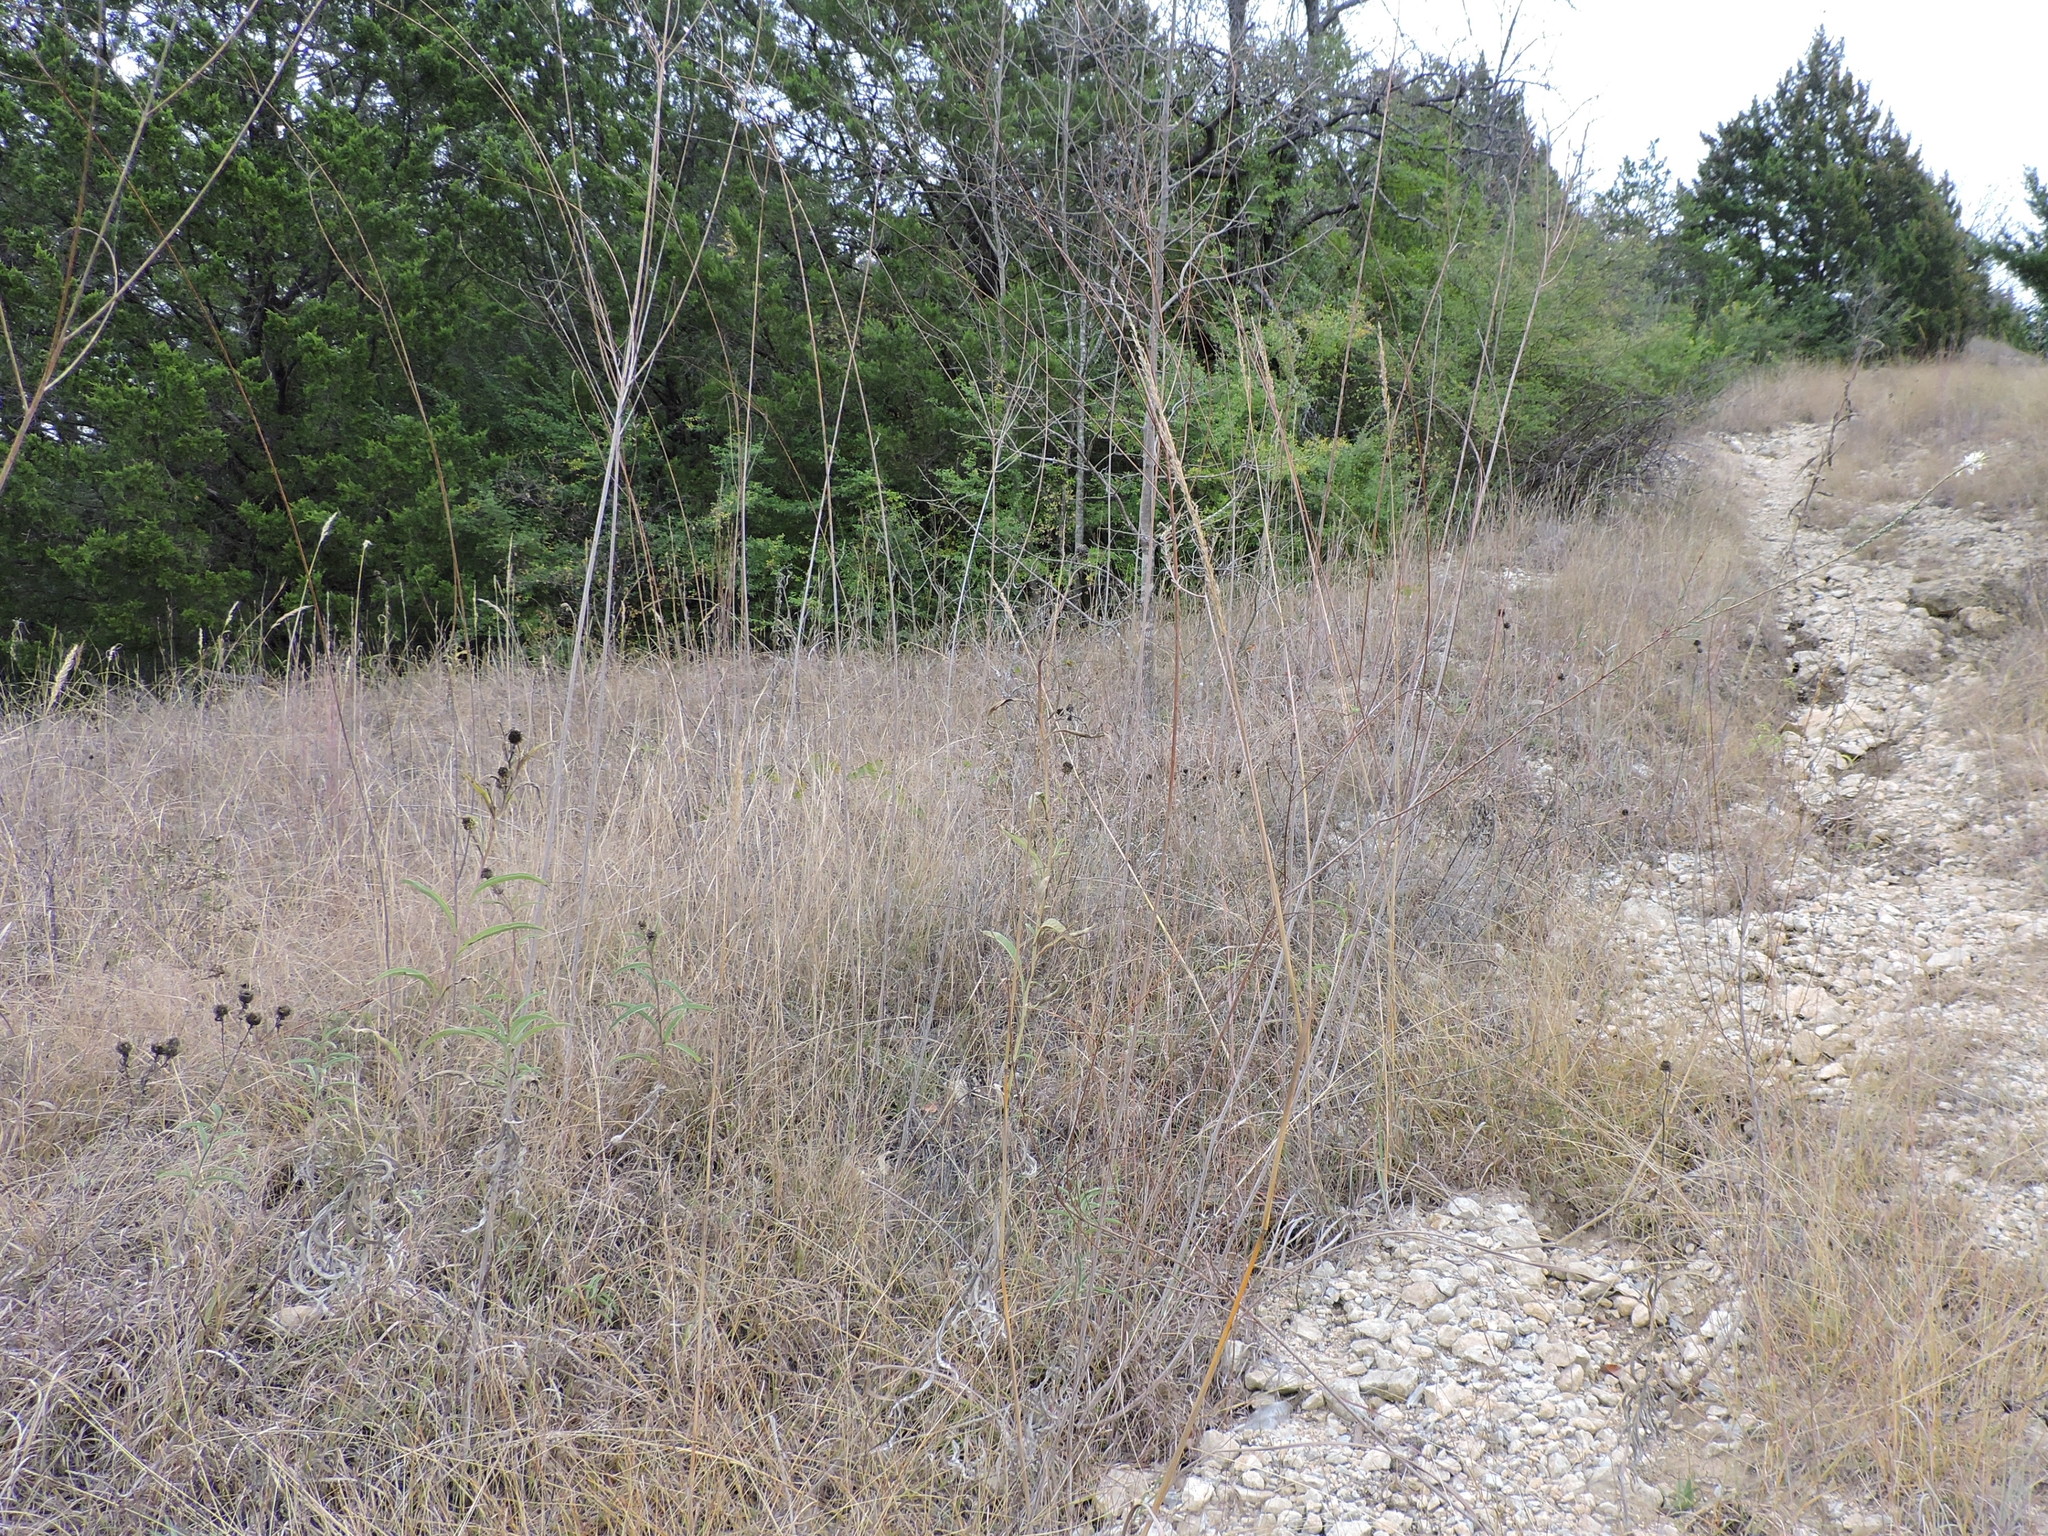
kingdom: Plantae
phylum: Tracheophyta
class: Magnoliopsida
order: Myrtales
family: Onagraceae
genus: Oenothera
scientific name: Oenothera glaucifolia
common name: False gaura
